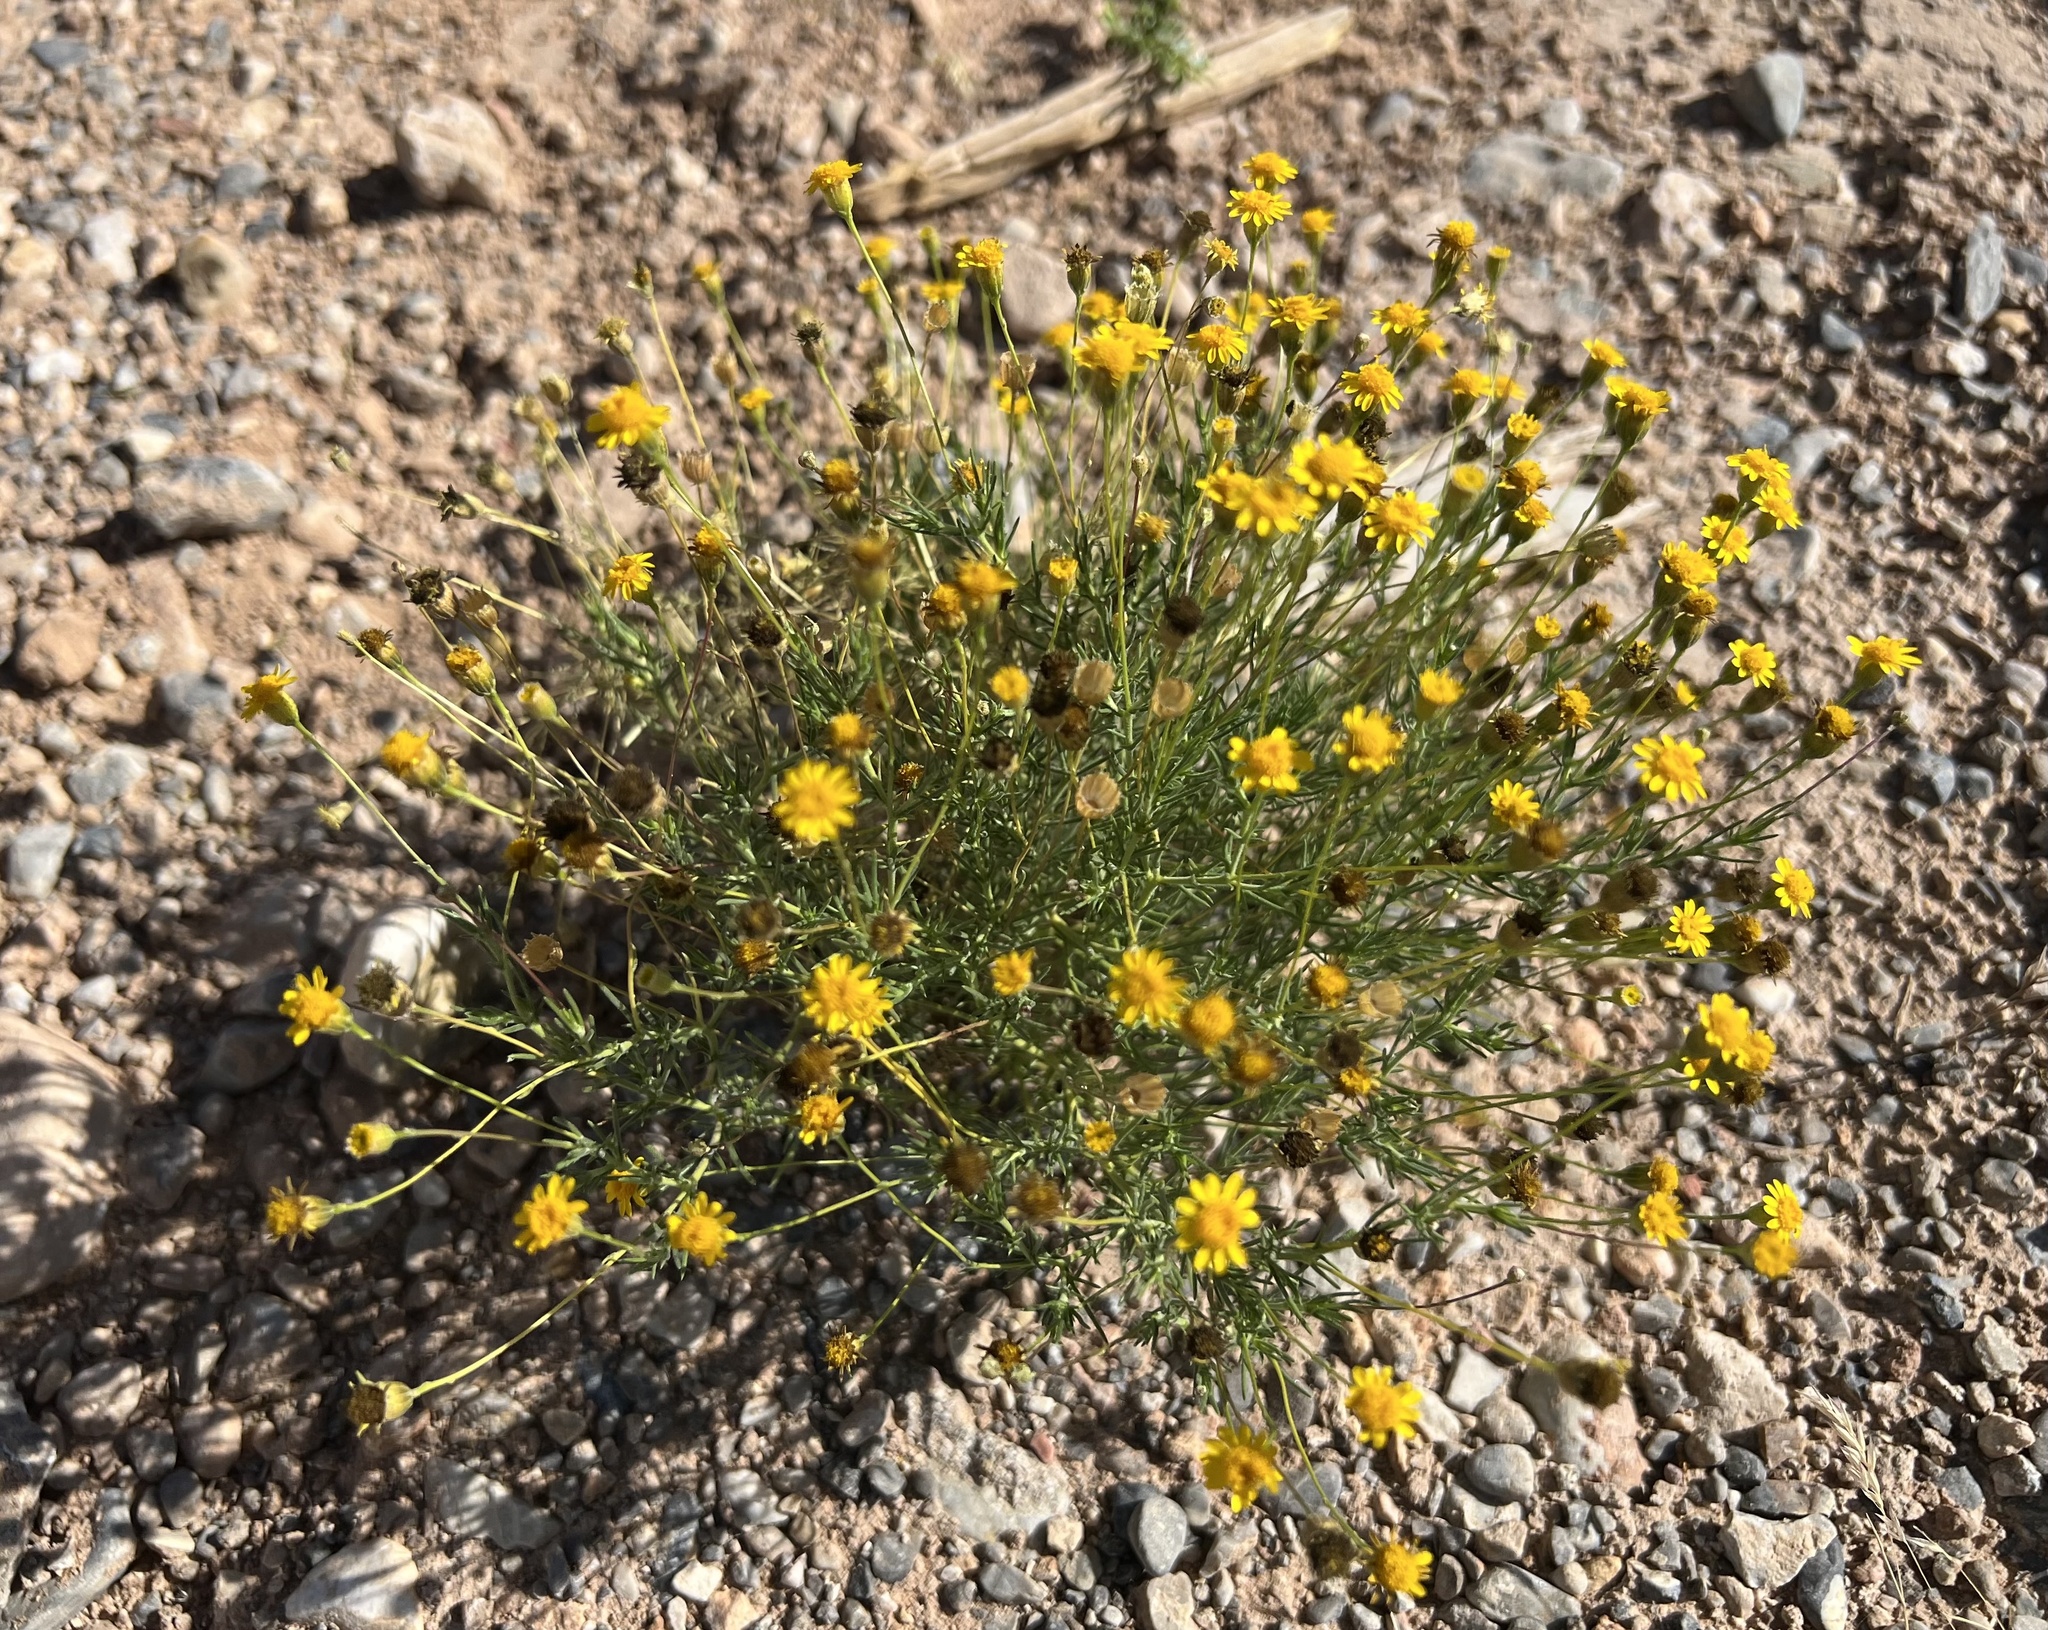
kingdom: Plantae
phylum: Tracheophyta
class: Magnoliopsida
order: Asterales
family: Asteraceae
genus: Thymophylla
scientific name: Thymophylla pentachaeta
